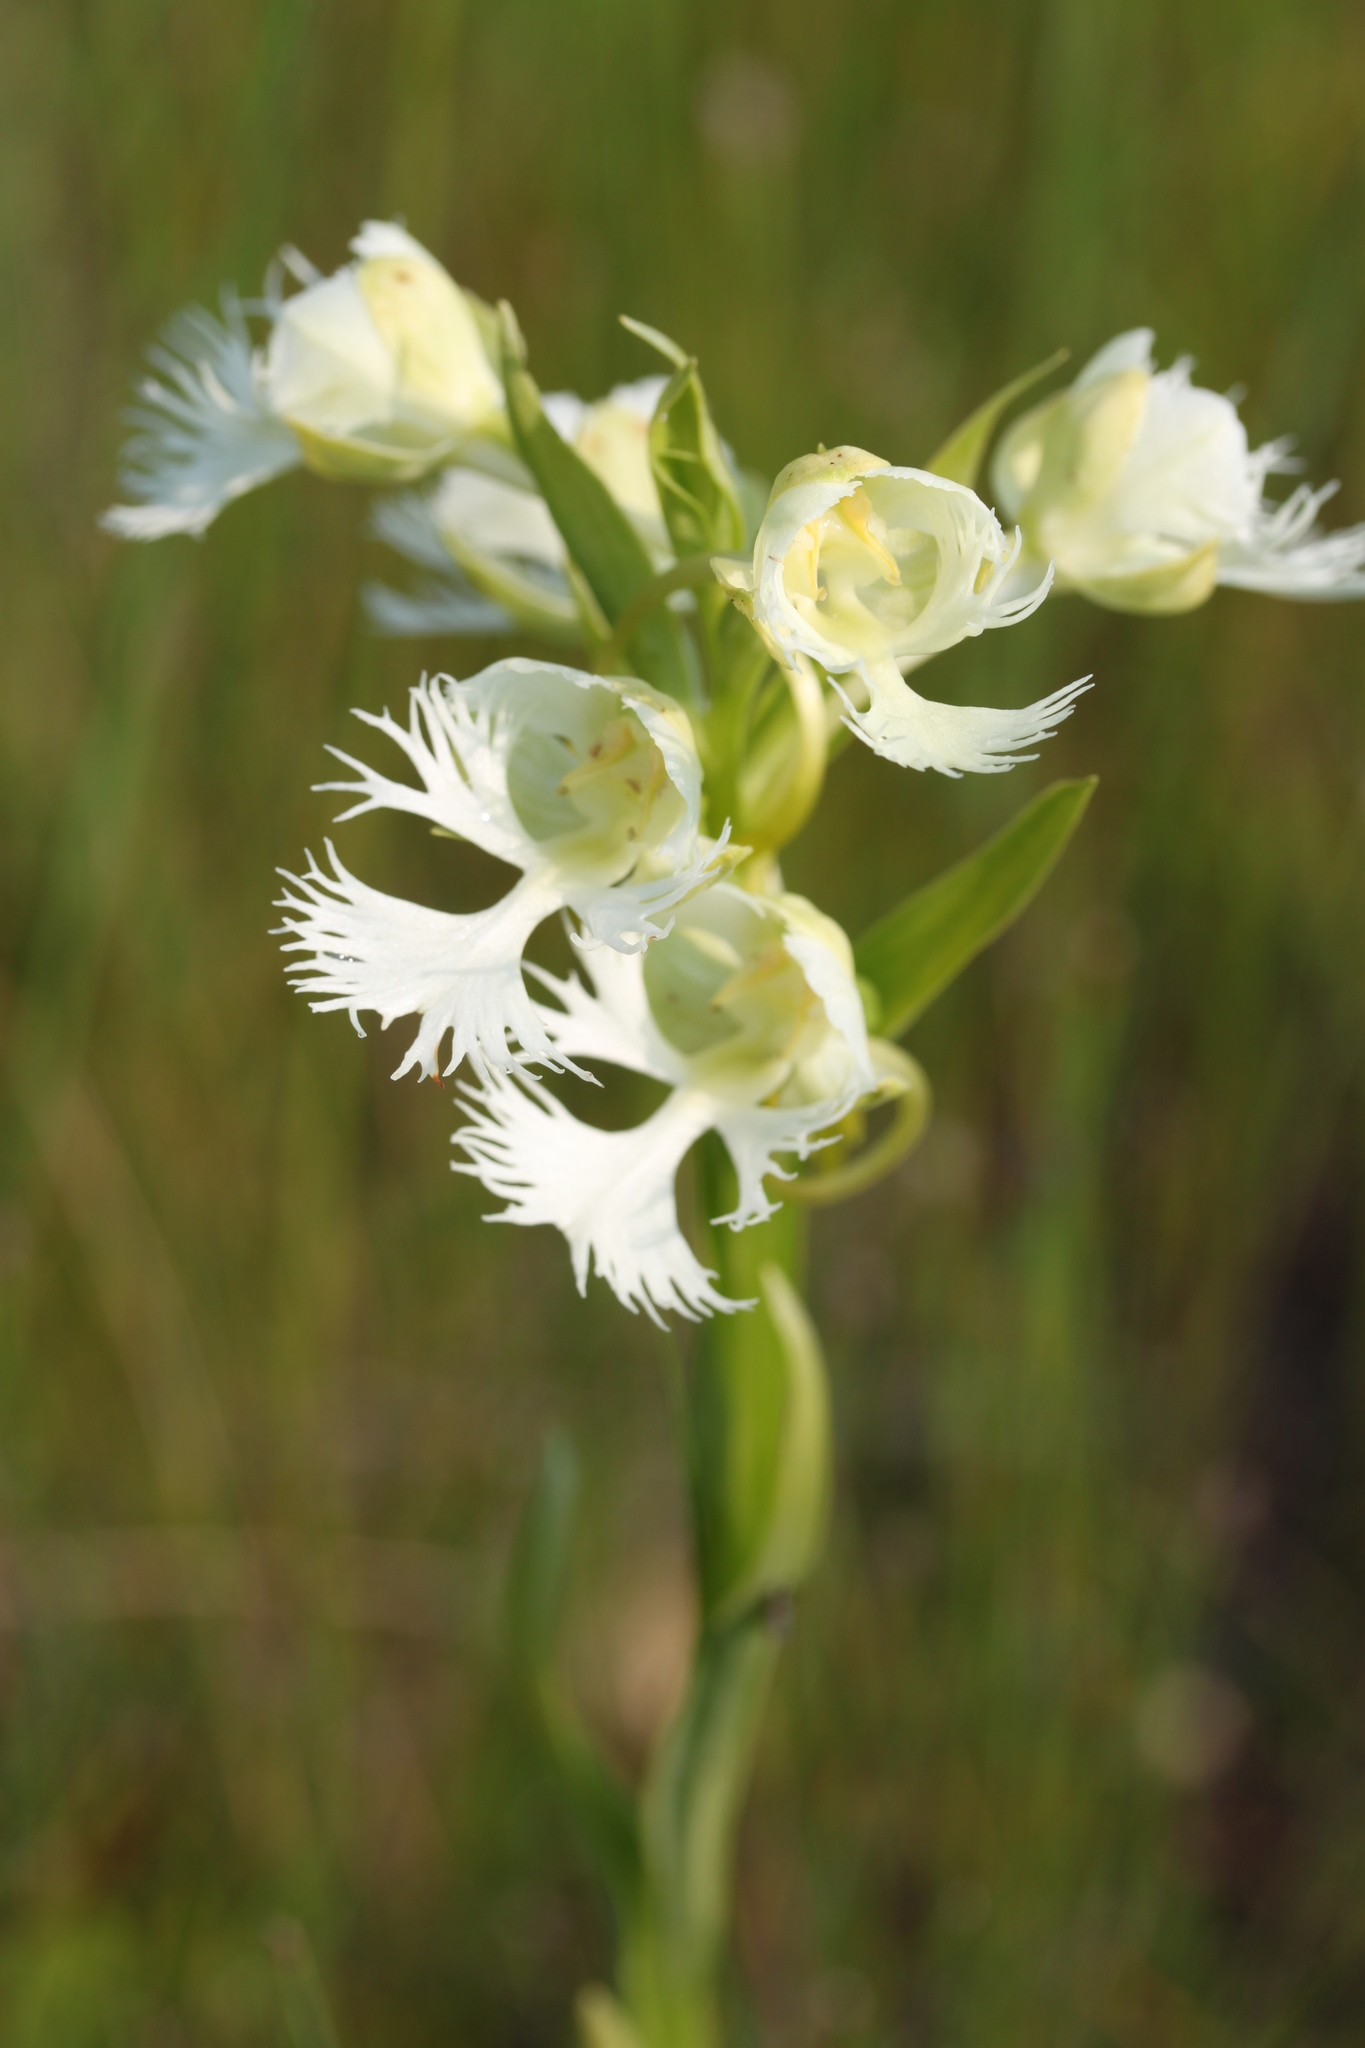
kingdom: Plantae
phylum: Tracheophyta
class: Liliopsida
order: Asparagales
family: Orchidaceae
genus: Platanthera
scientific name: Platanthera praeclara
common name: Western prairie fringed orchid
